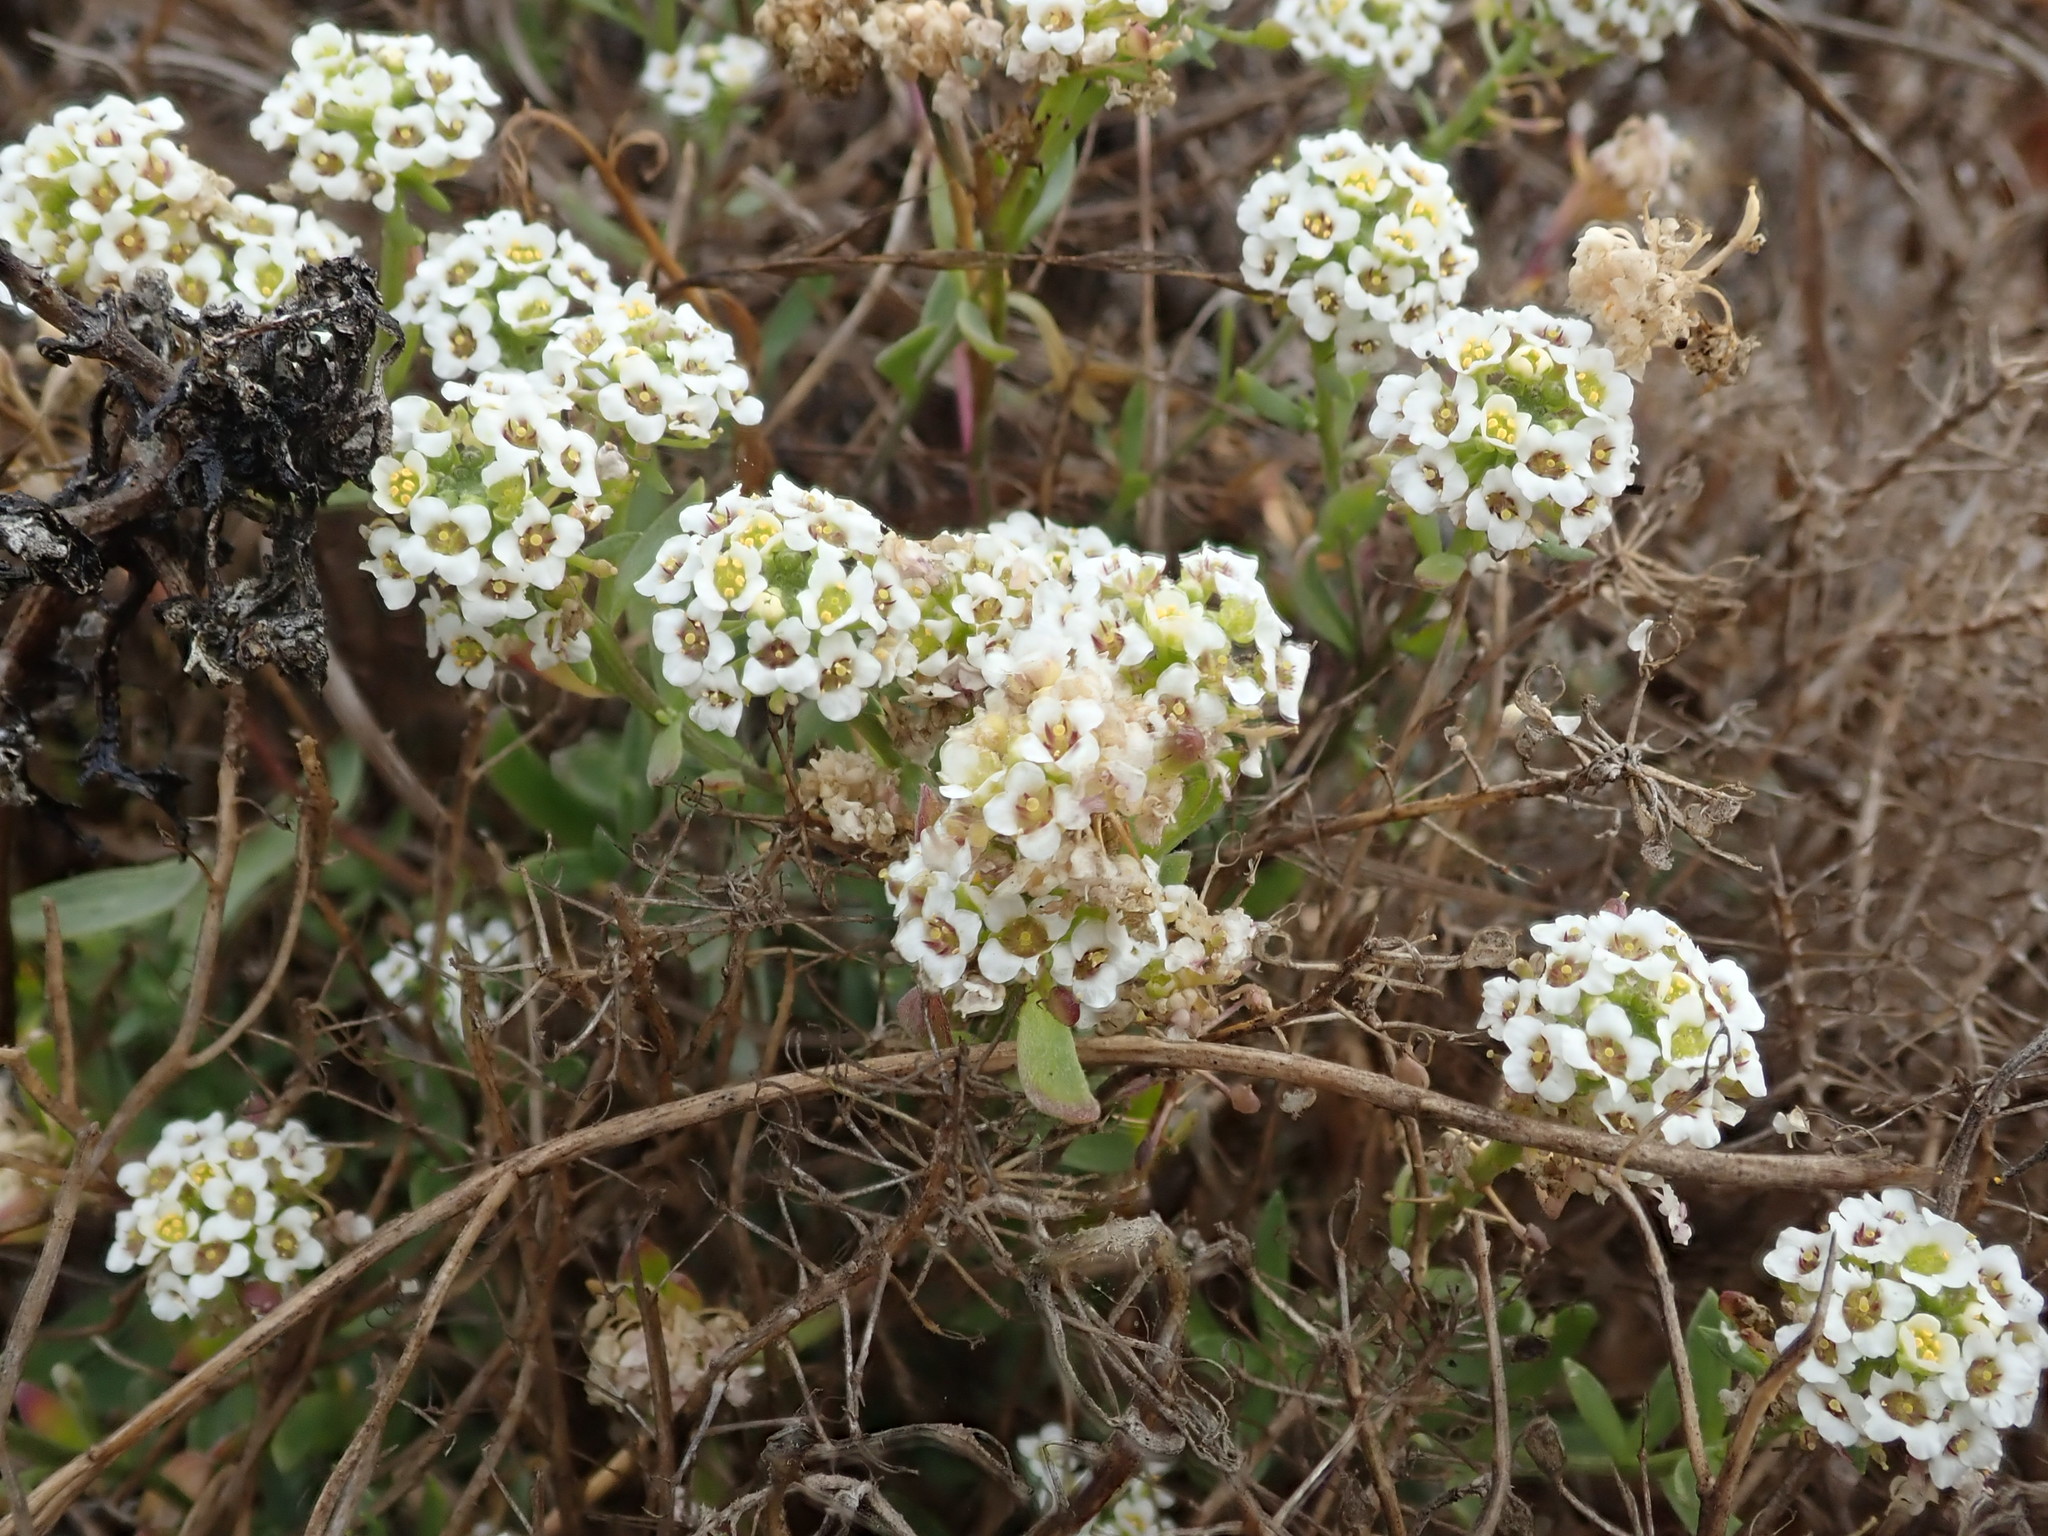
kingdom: Plantae
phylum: Tracheophyta
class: Magnoliopsida
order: Brassicales
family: Brassicaceae
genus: Lobularia
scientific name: Lobularia maritima
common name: Sweet alison
